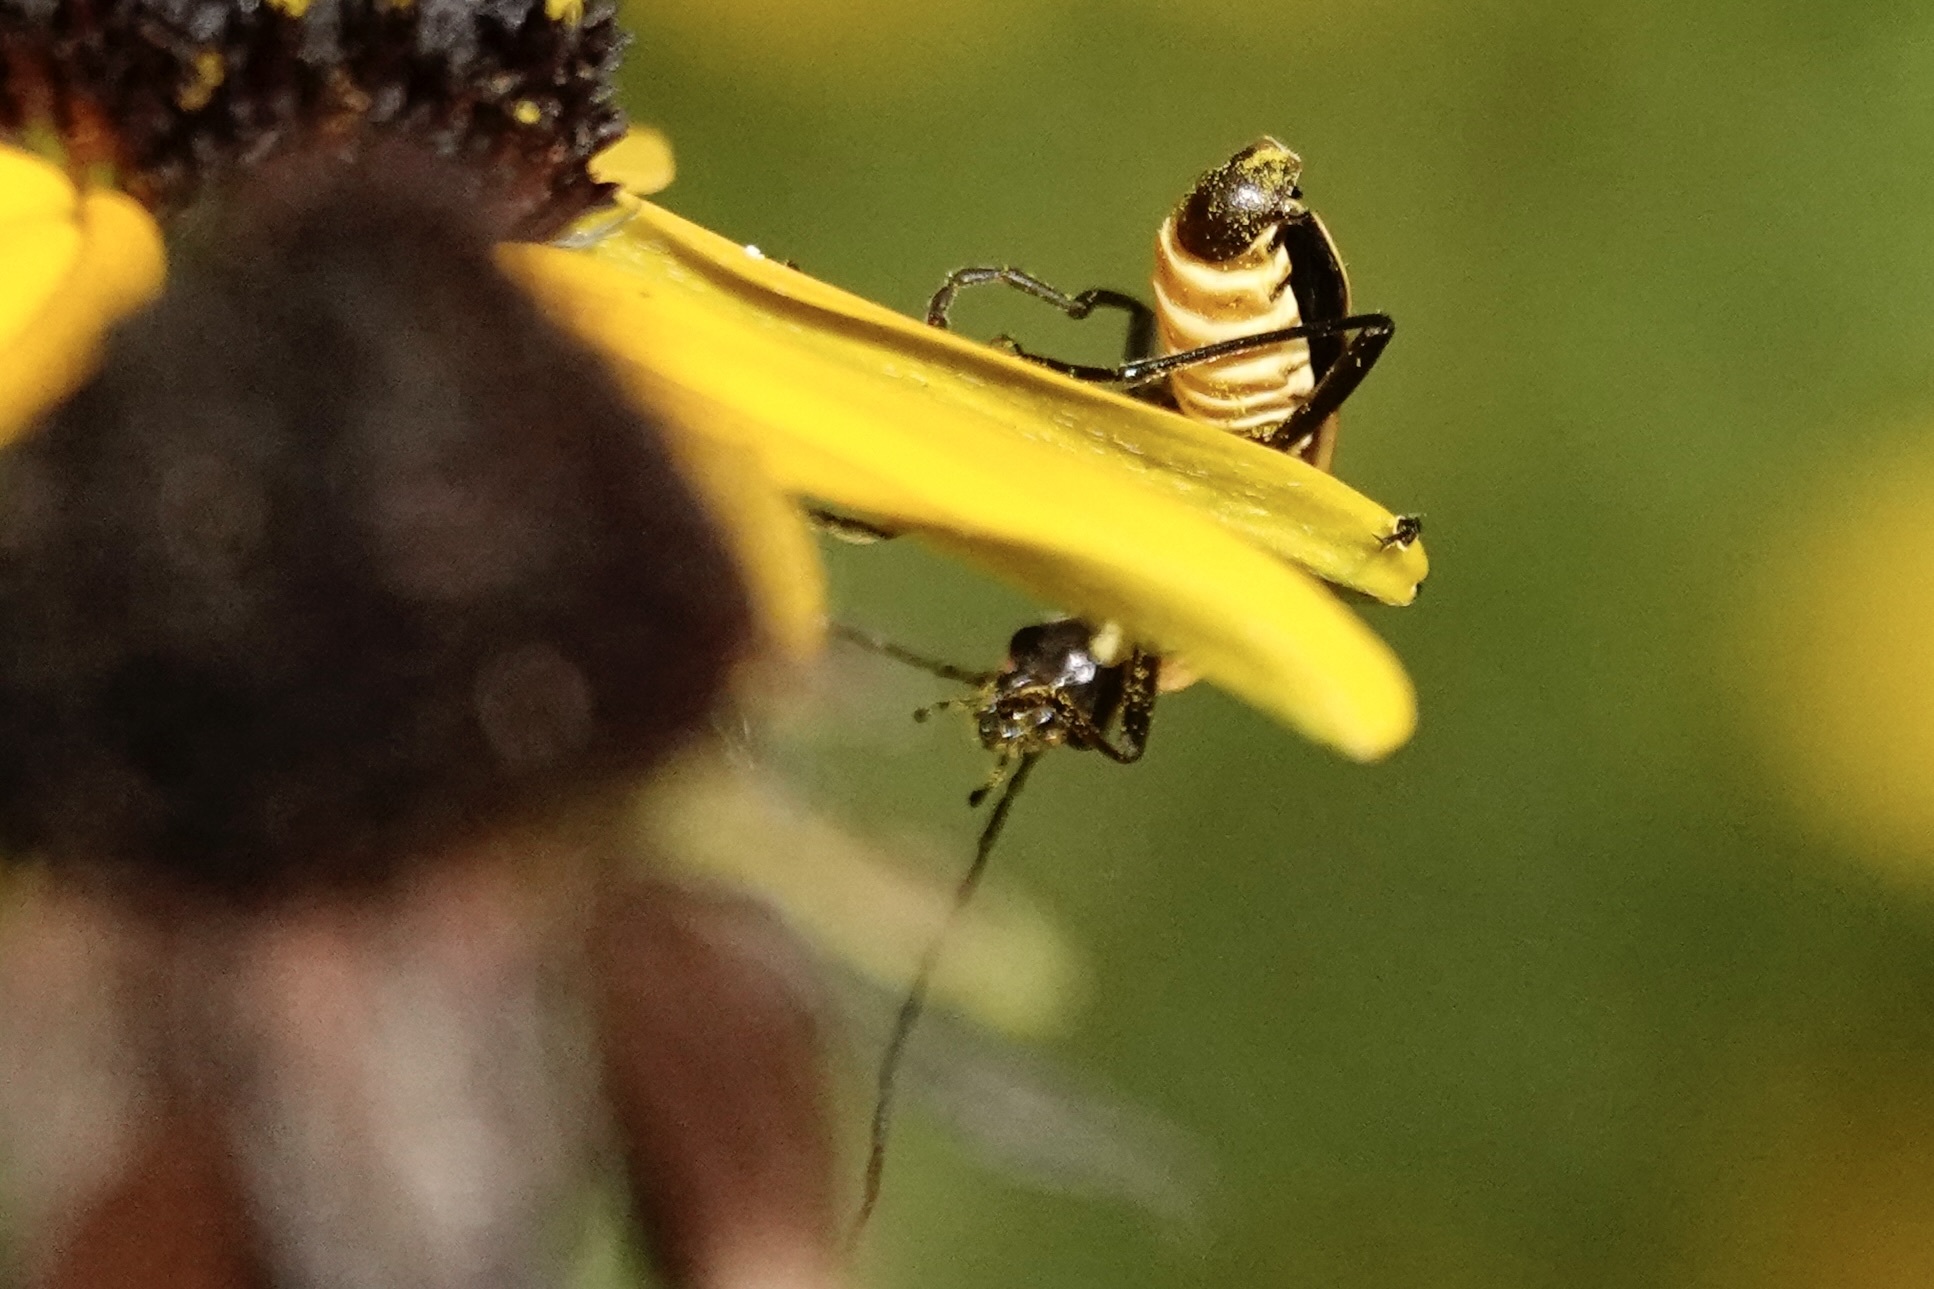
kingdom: Animalia
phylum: Arthropoda
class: Insecta
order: Coleoptera
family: Cantharidae
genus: Chauliognathus
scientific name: Chauliognathus pensylvanicus
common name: Goldenrod soldier beetle
